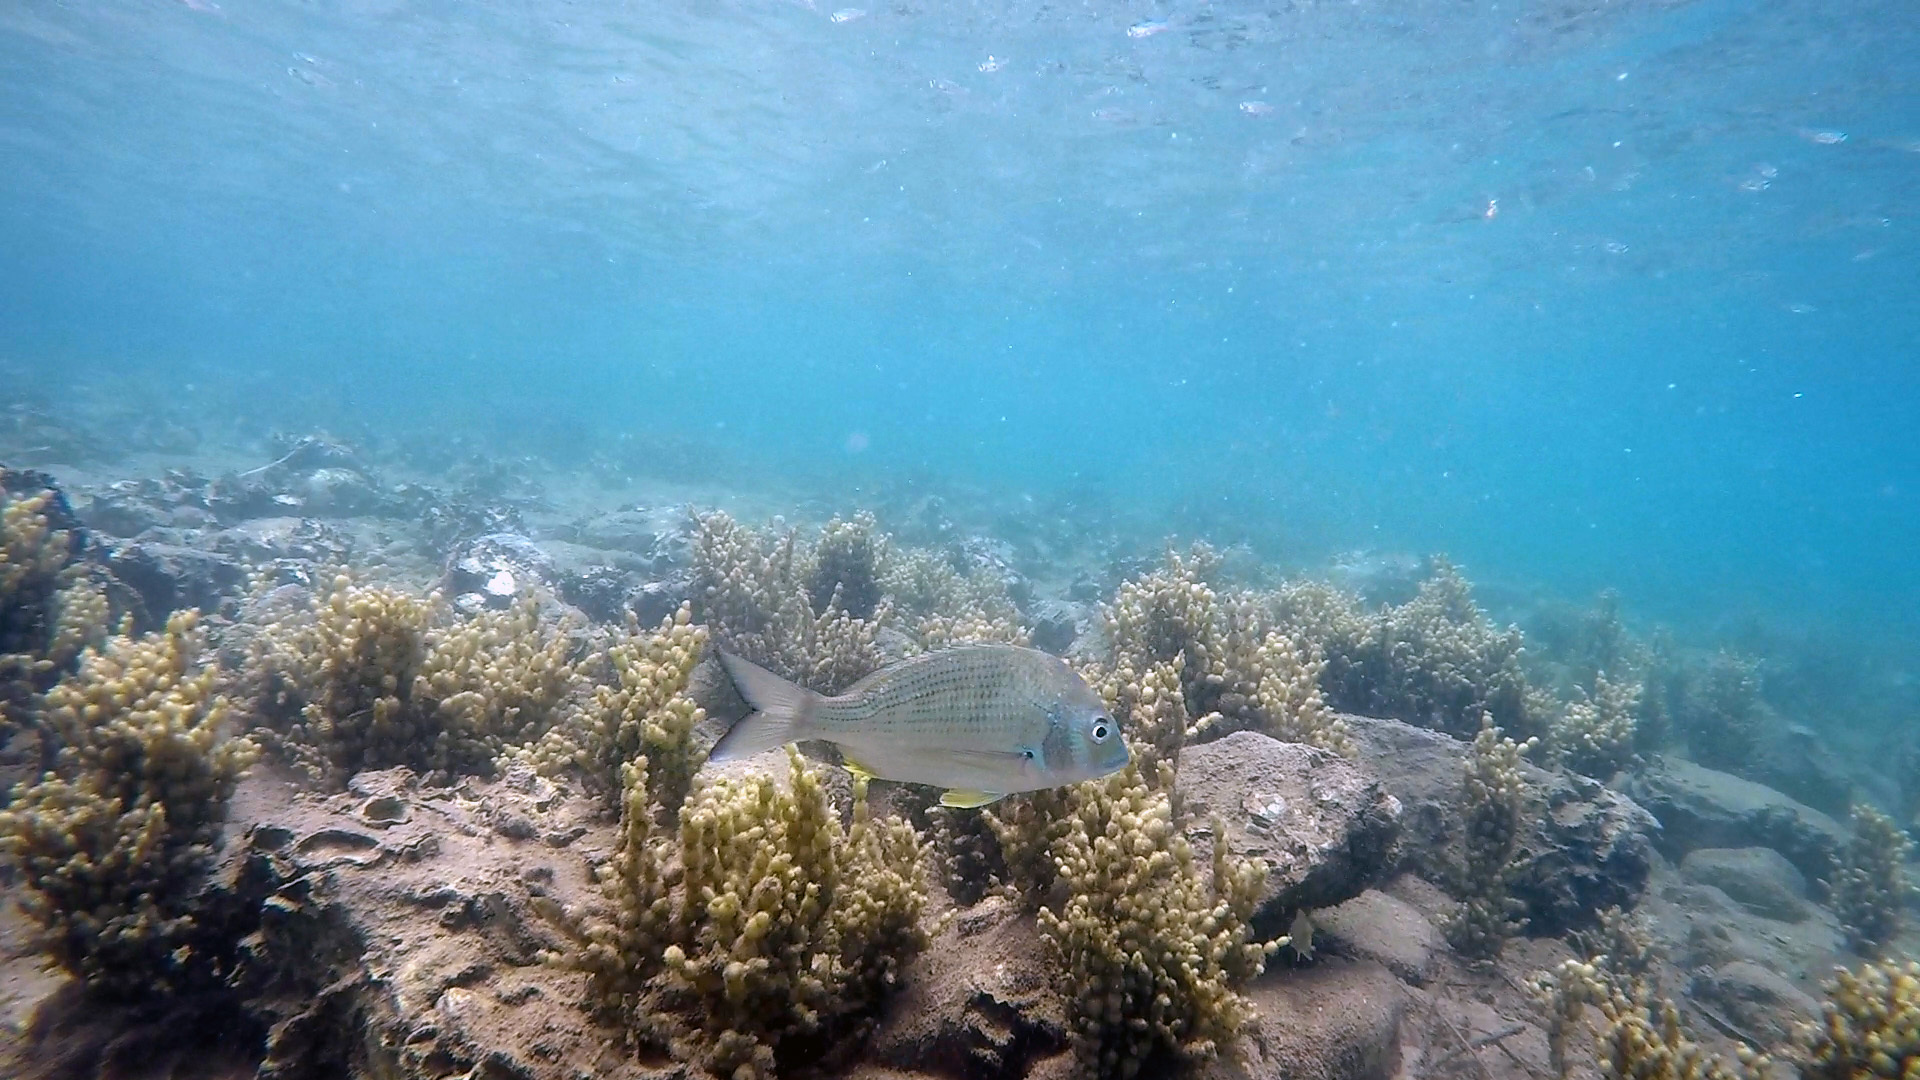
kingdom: Animalia
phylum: Chordata
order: Perciformes
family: Sparidae
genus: Acanthopagrus
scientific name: Acanthopagrus australis
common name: Surf bream
